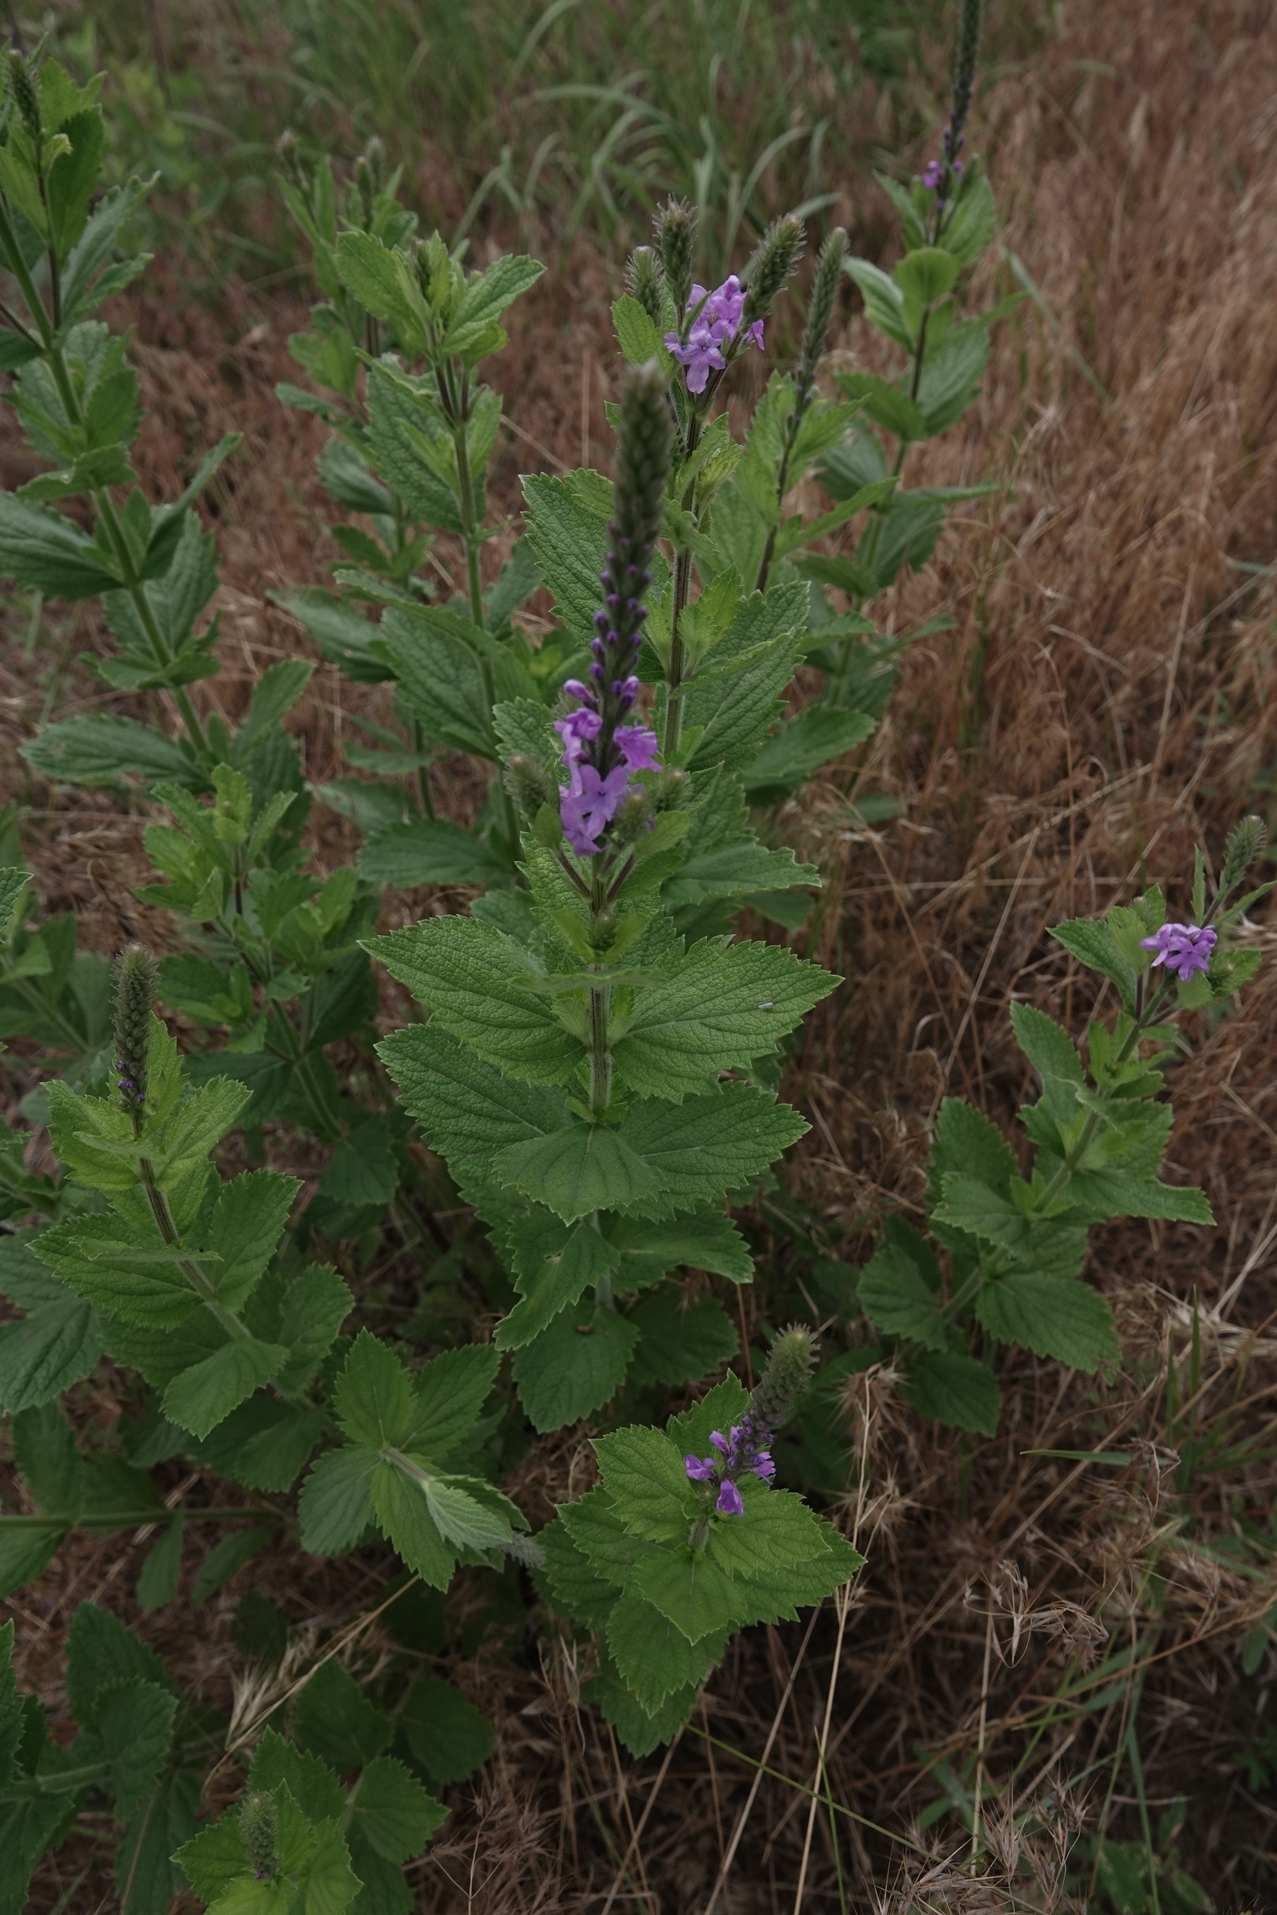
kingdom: Plantae
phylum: Tracheophyta
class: Magnoliopsida
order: Lamiales
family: Verbenaceae
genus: Verbena
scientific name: Verbena stricta
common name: Hoary vervain
